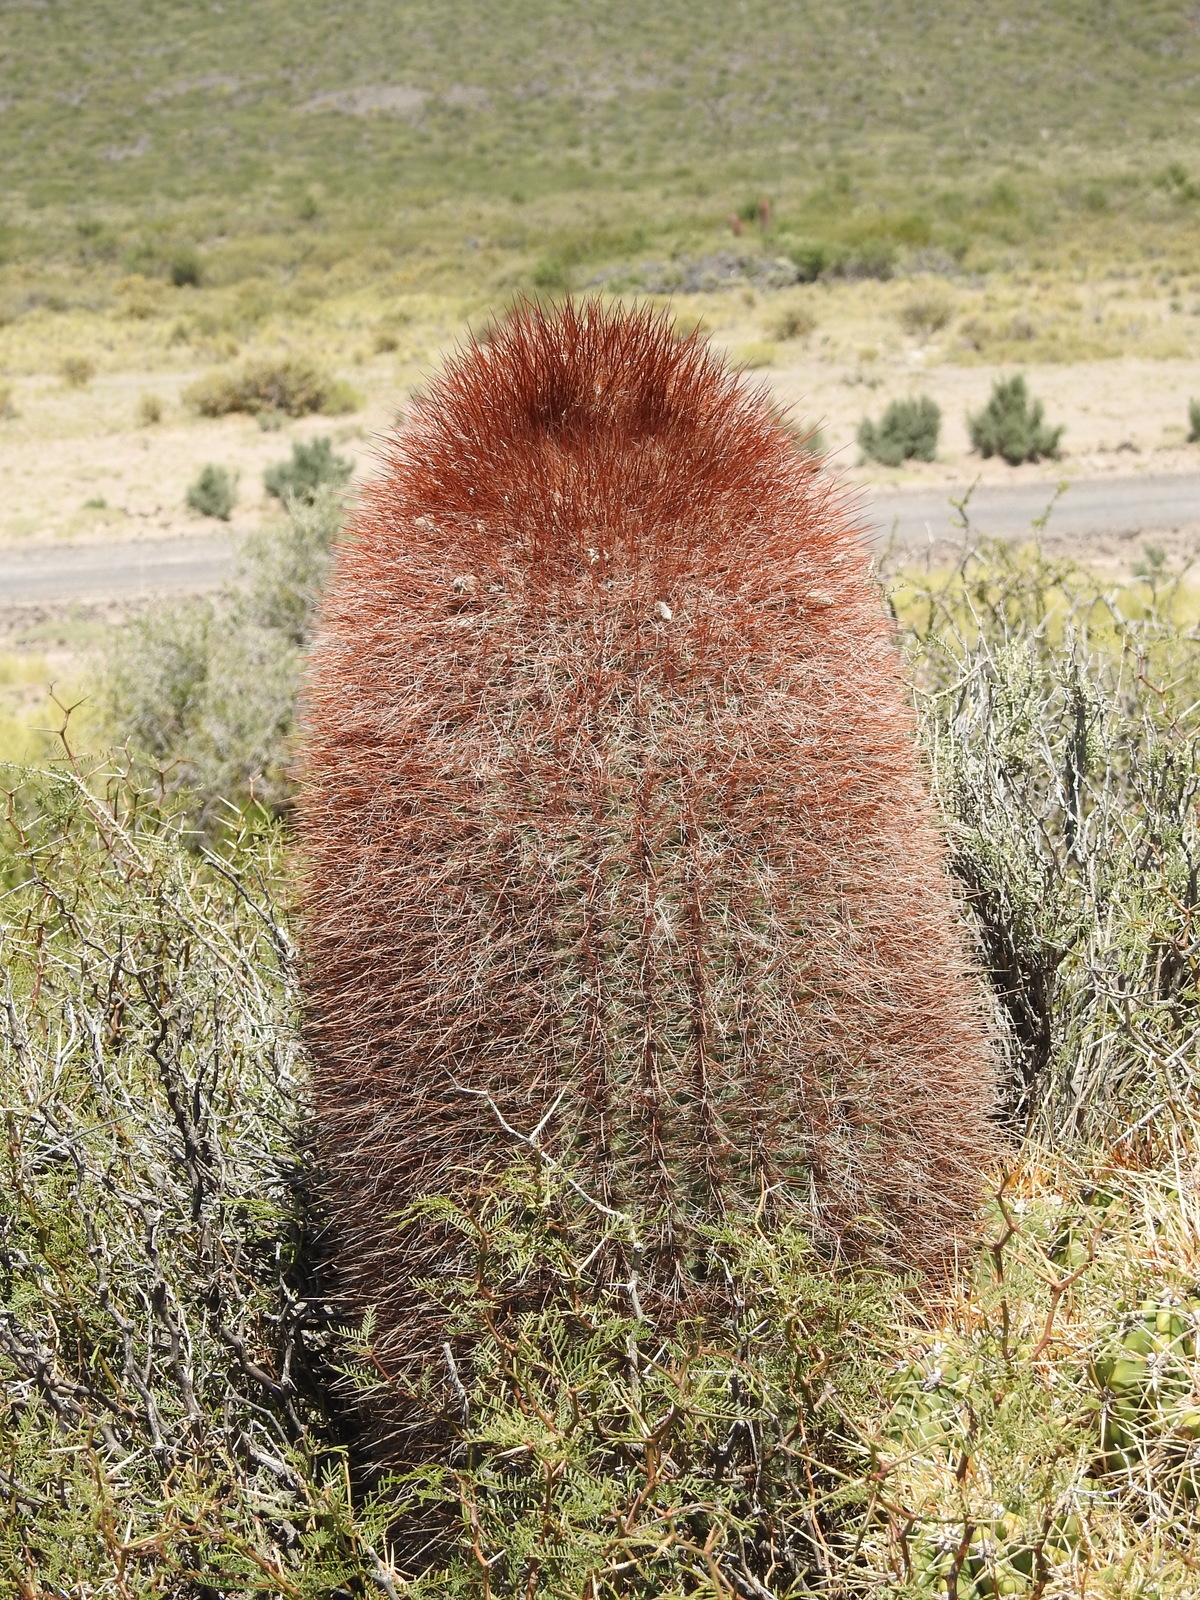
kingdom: Plantae
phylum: Tracheophyta
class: Magnoliopsida
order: Caryophyllales
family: Cactaceae
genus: Denmoza
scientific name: Denmoza rhodacantha
